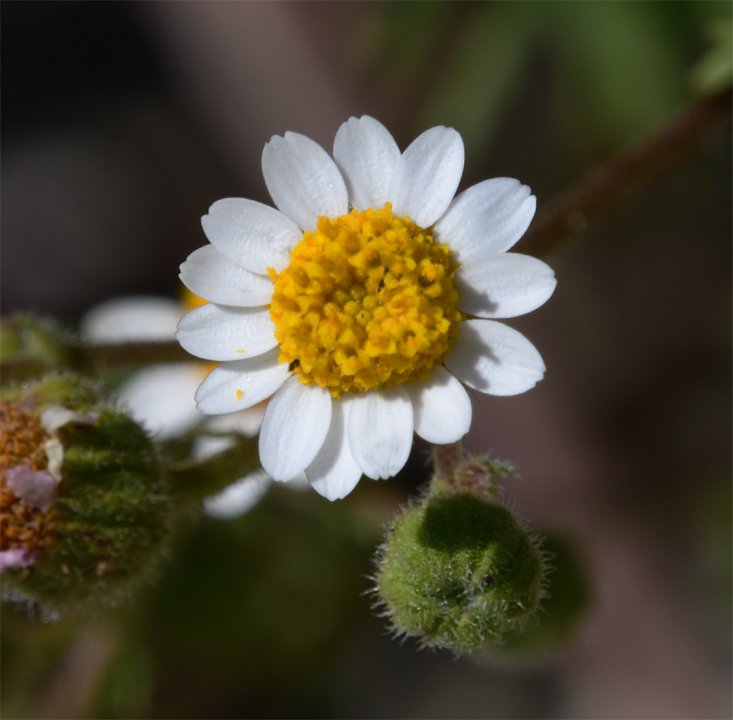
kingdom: Plantae
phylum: Tracheophyta
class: Magnoliopsida
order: Asterales
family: Asteraceae
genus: Laphamia
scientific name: Laphamia emoryi
